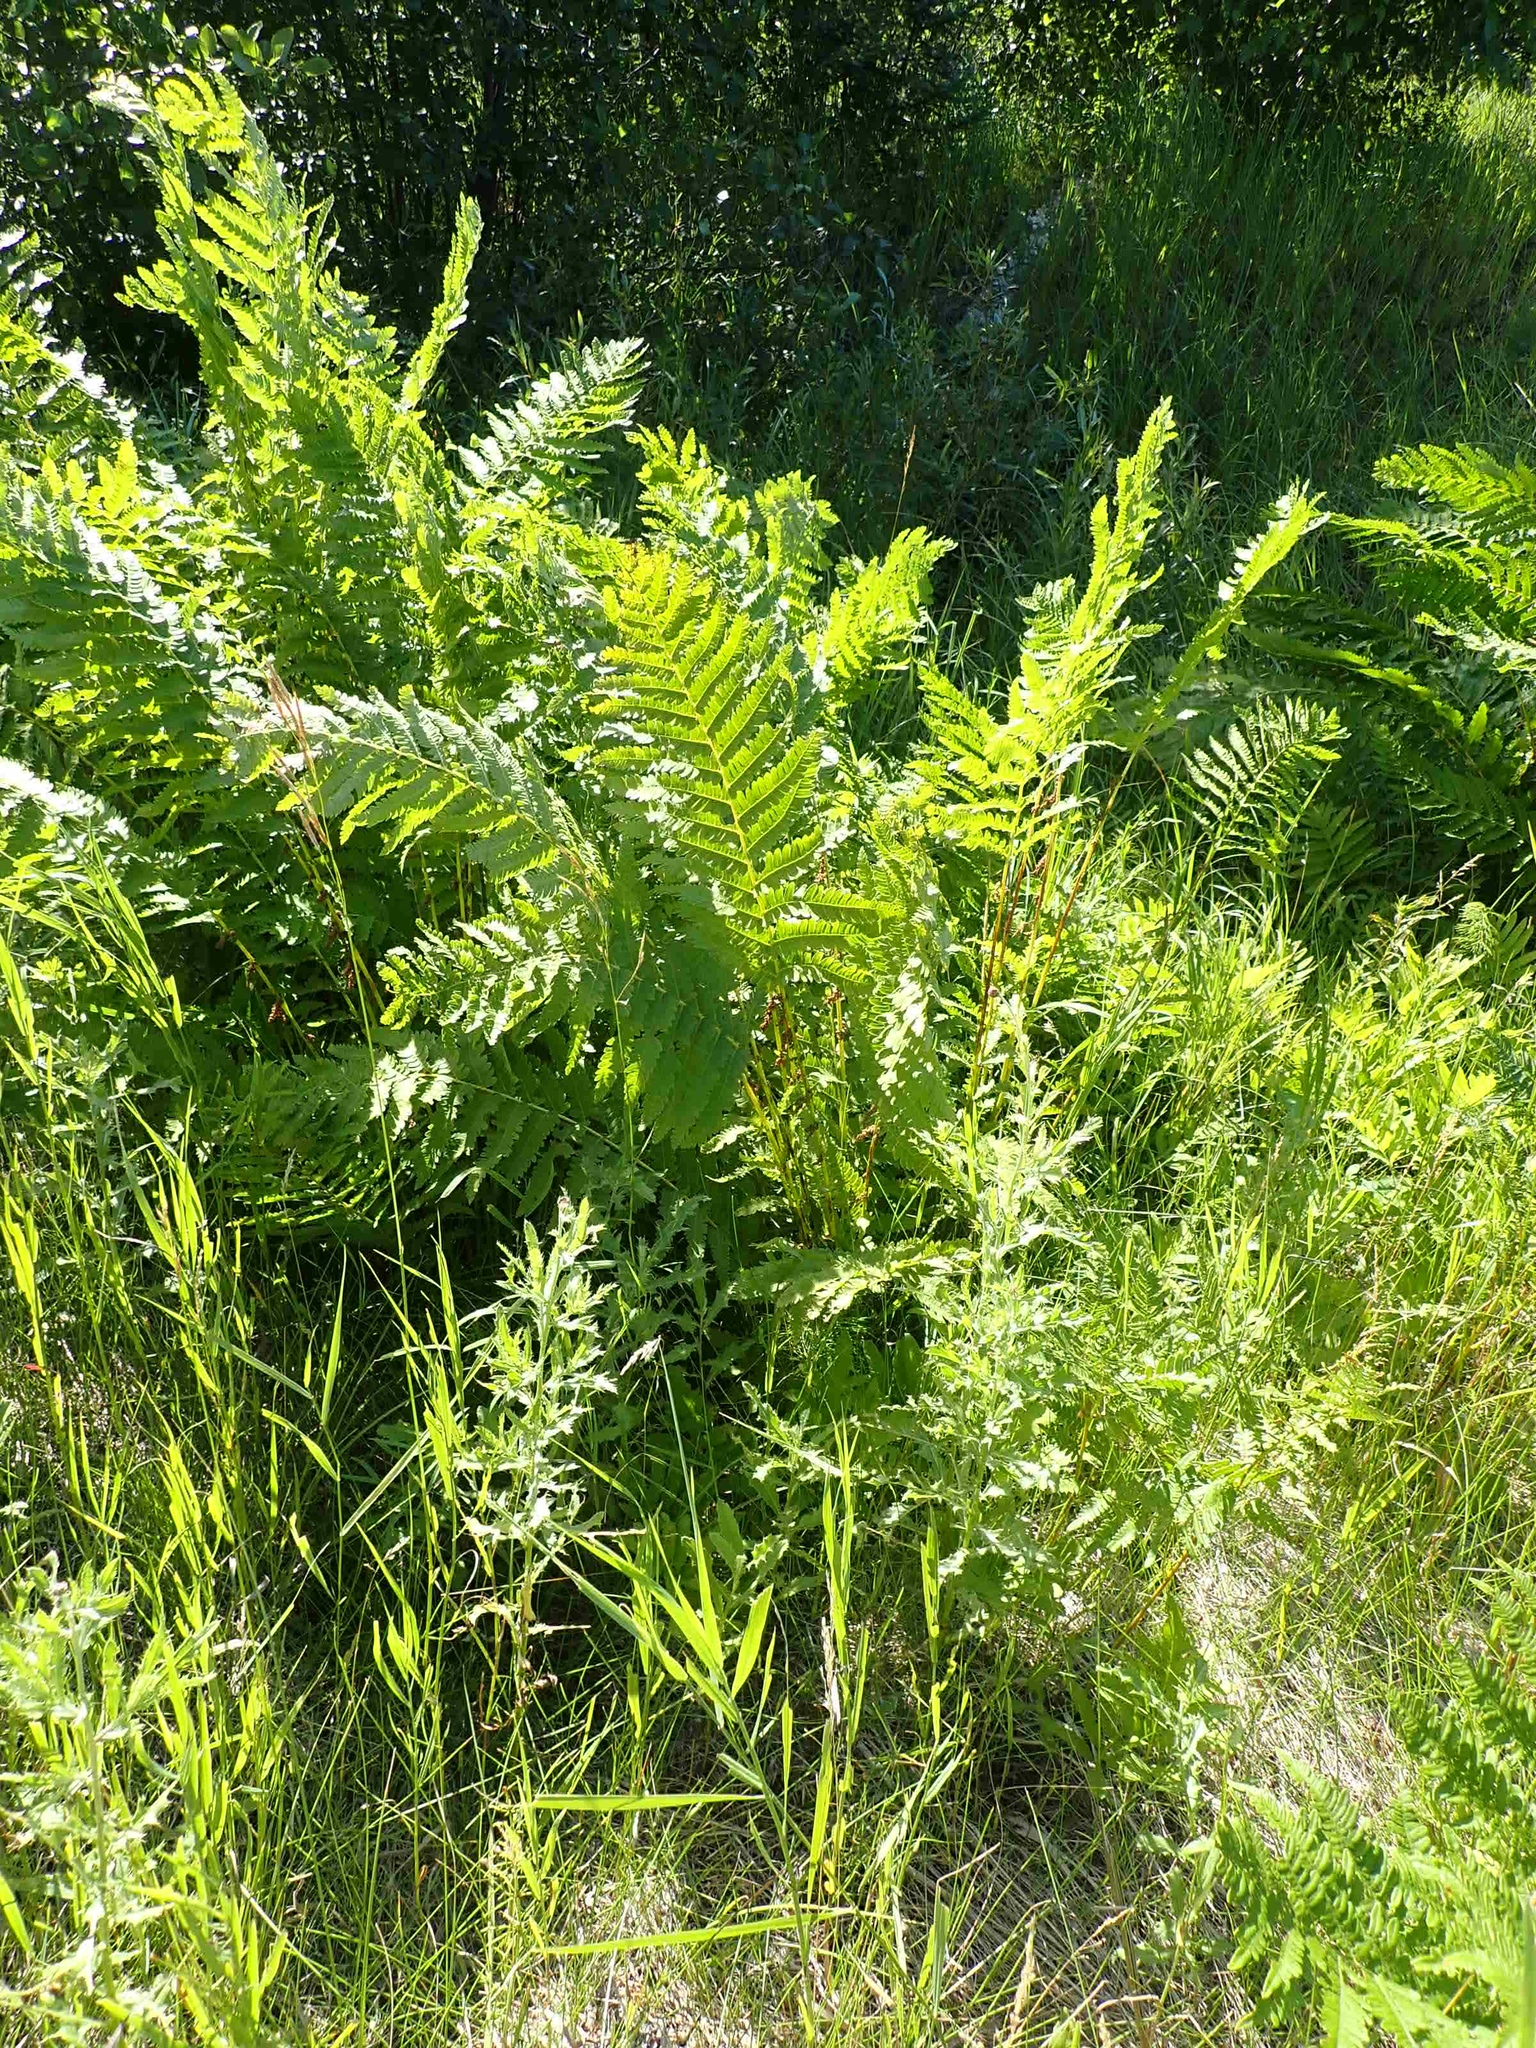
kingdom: Plantae
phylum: Tracheophyta
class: Polypodiopsida
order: Osmundales
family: Osmundaceae
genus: Claytosmunda
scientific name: Claytosmunda claytoniana
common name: Clayton's fern
